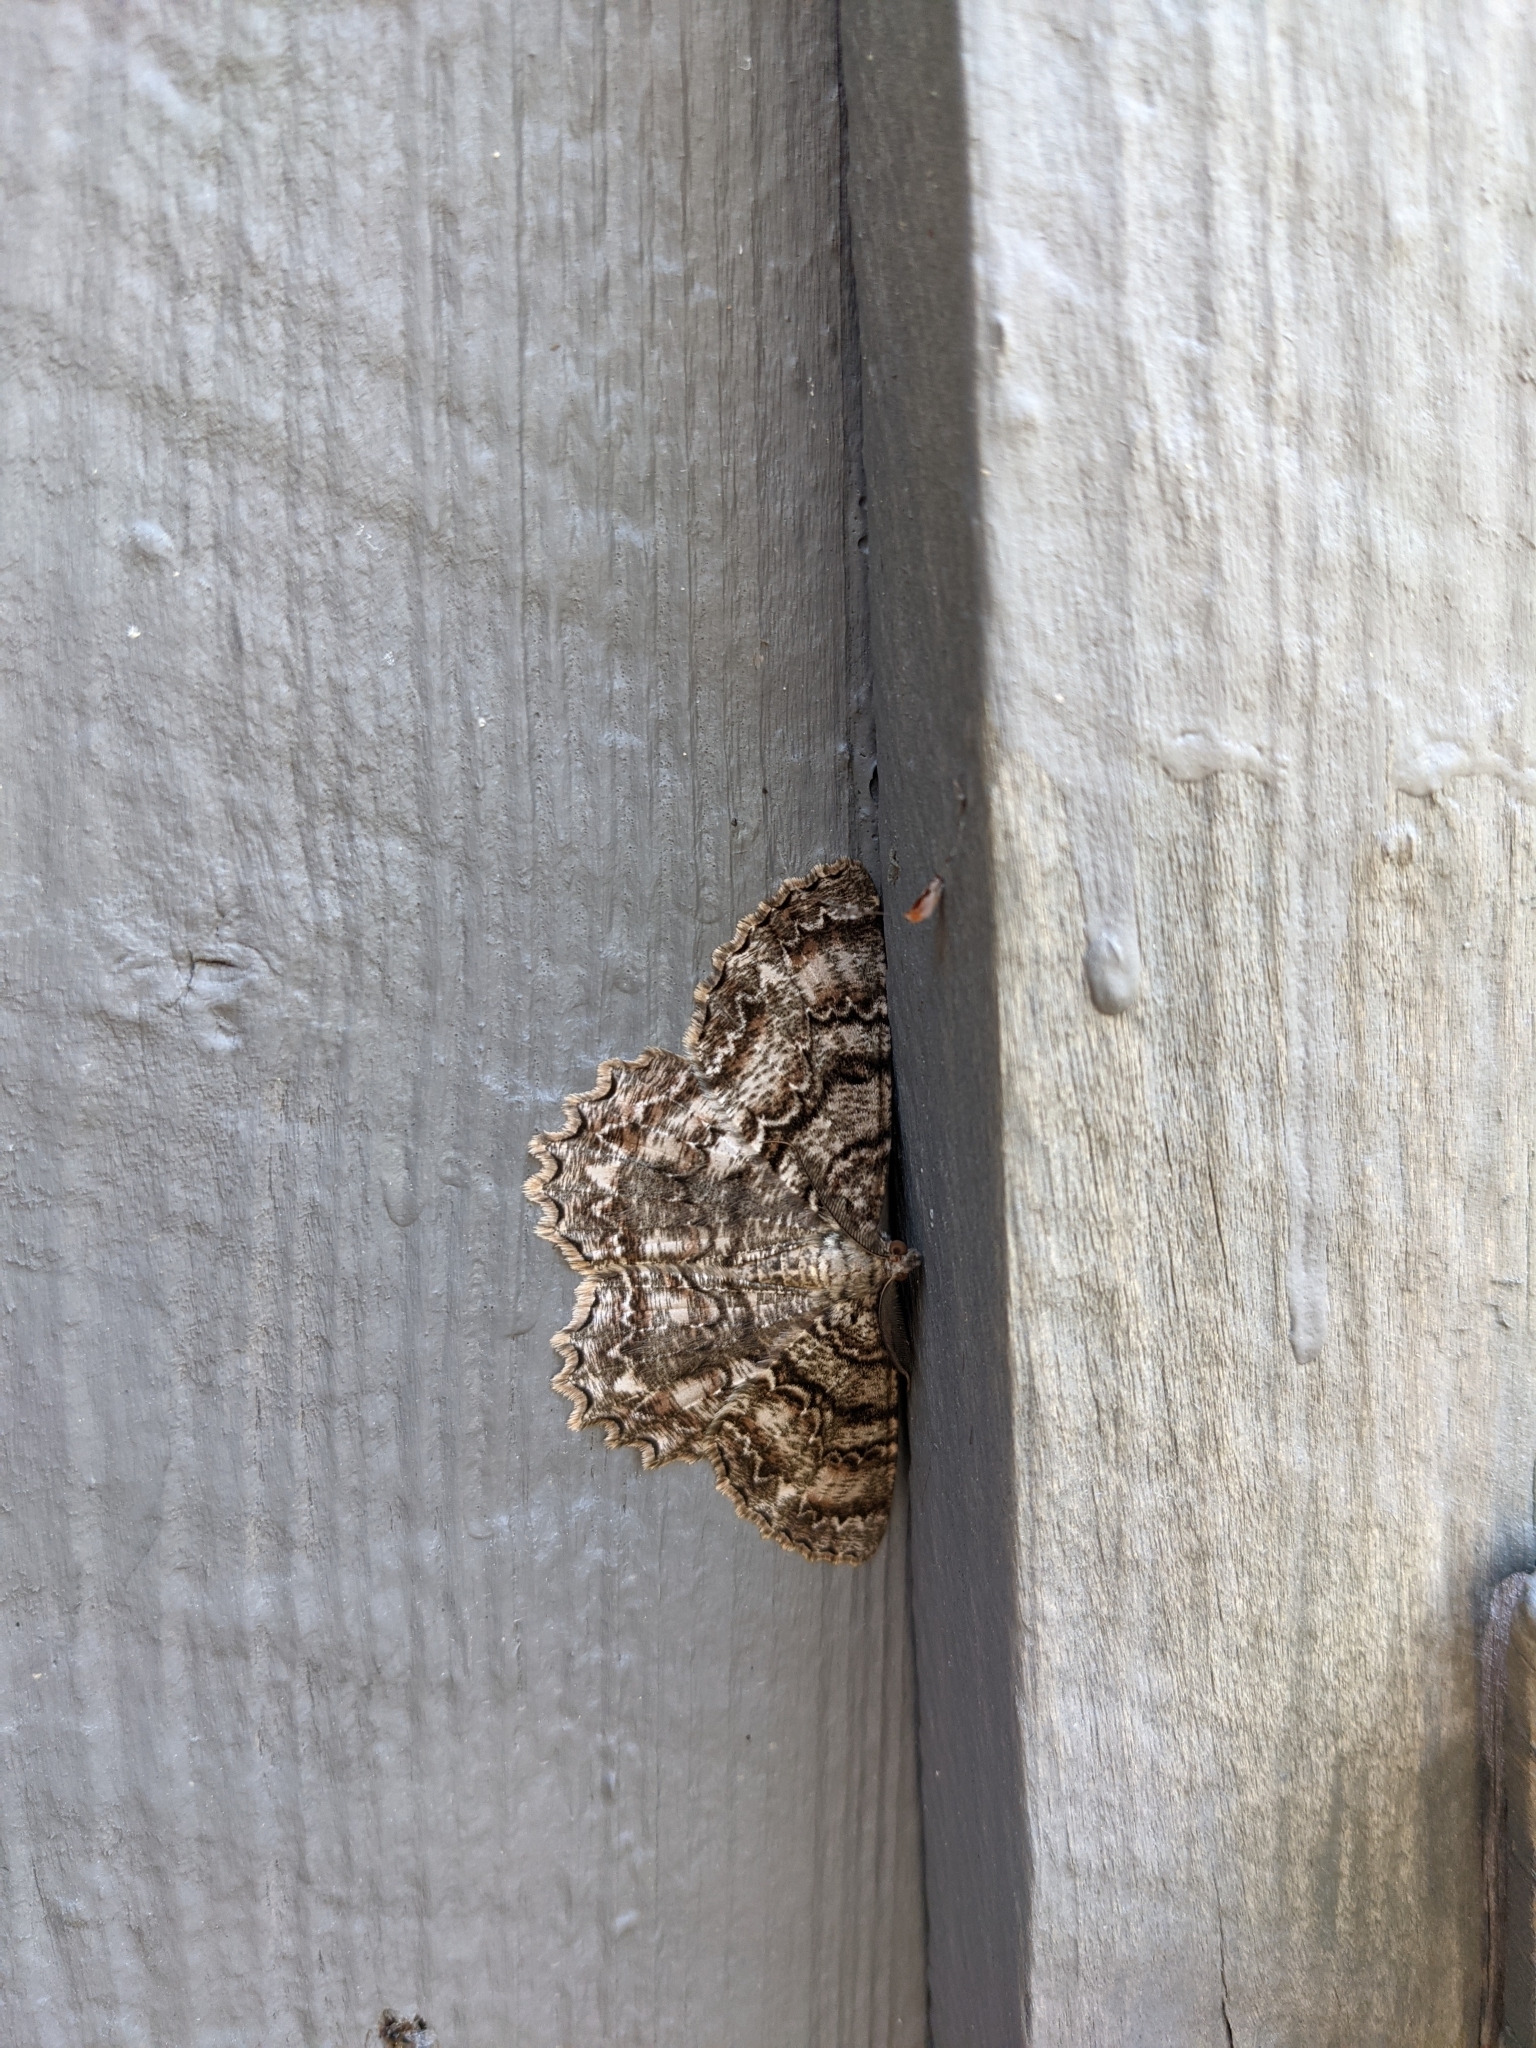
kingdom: Animalia
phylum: Arthropoda
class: Insecta
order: Lepidoptera
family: Geometridae
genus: Epimecis
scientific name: Epimecis hortaria
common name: Tulip-tree beauty
